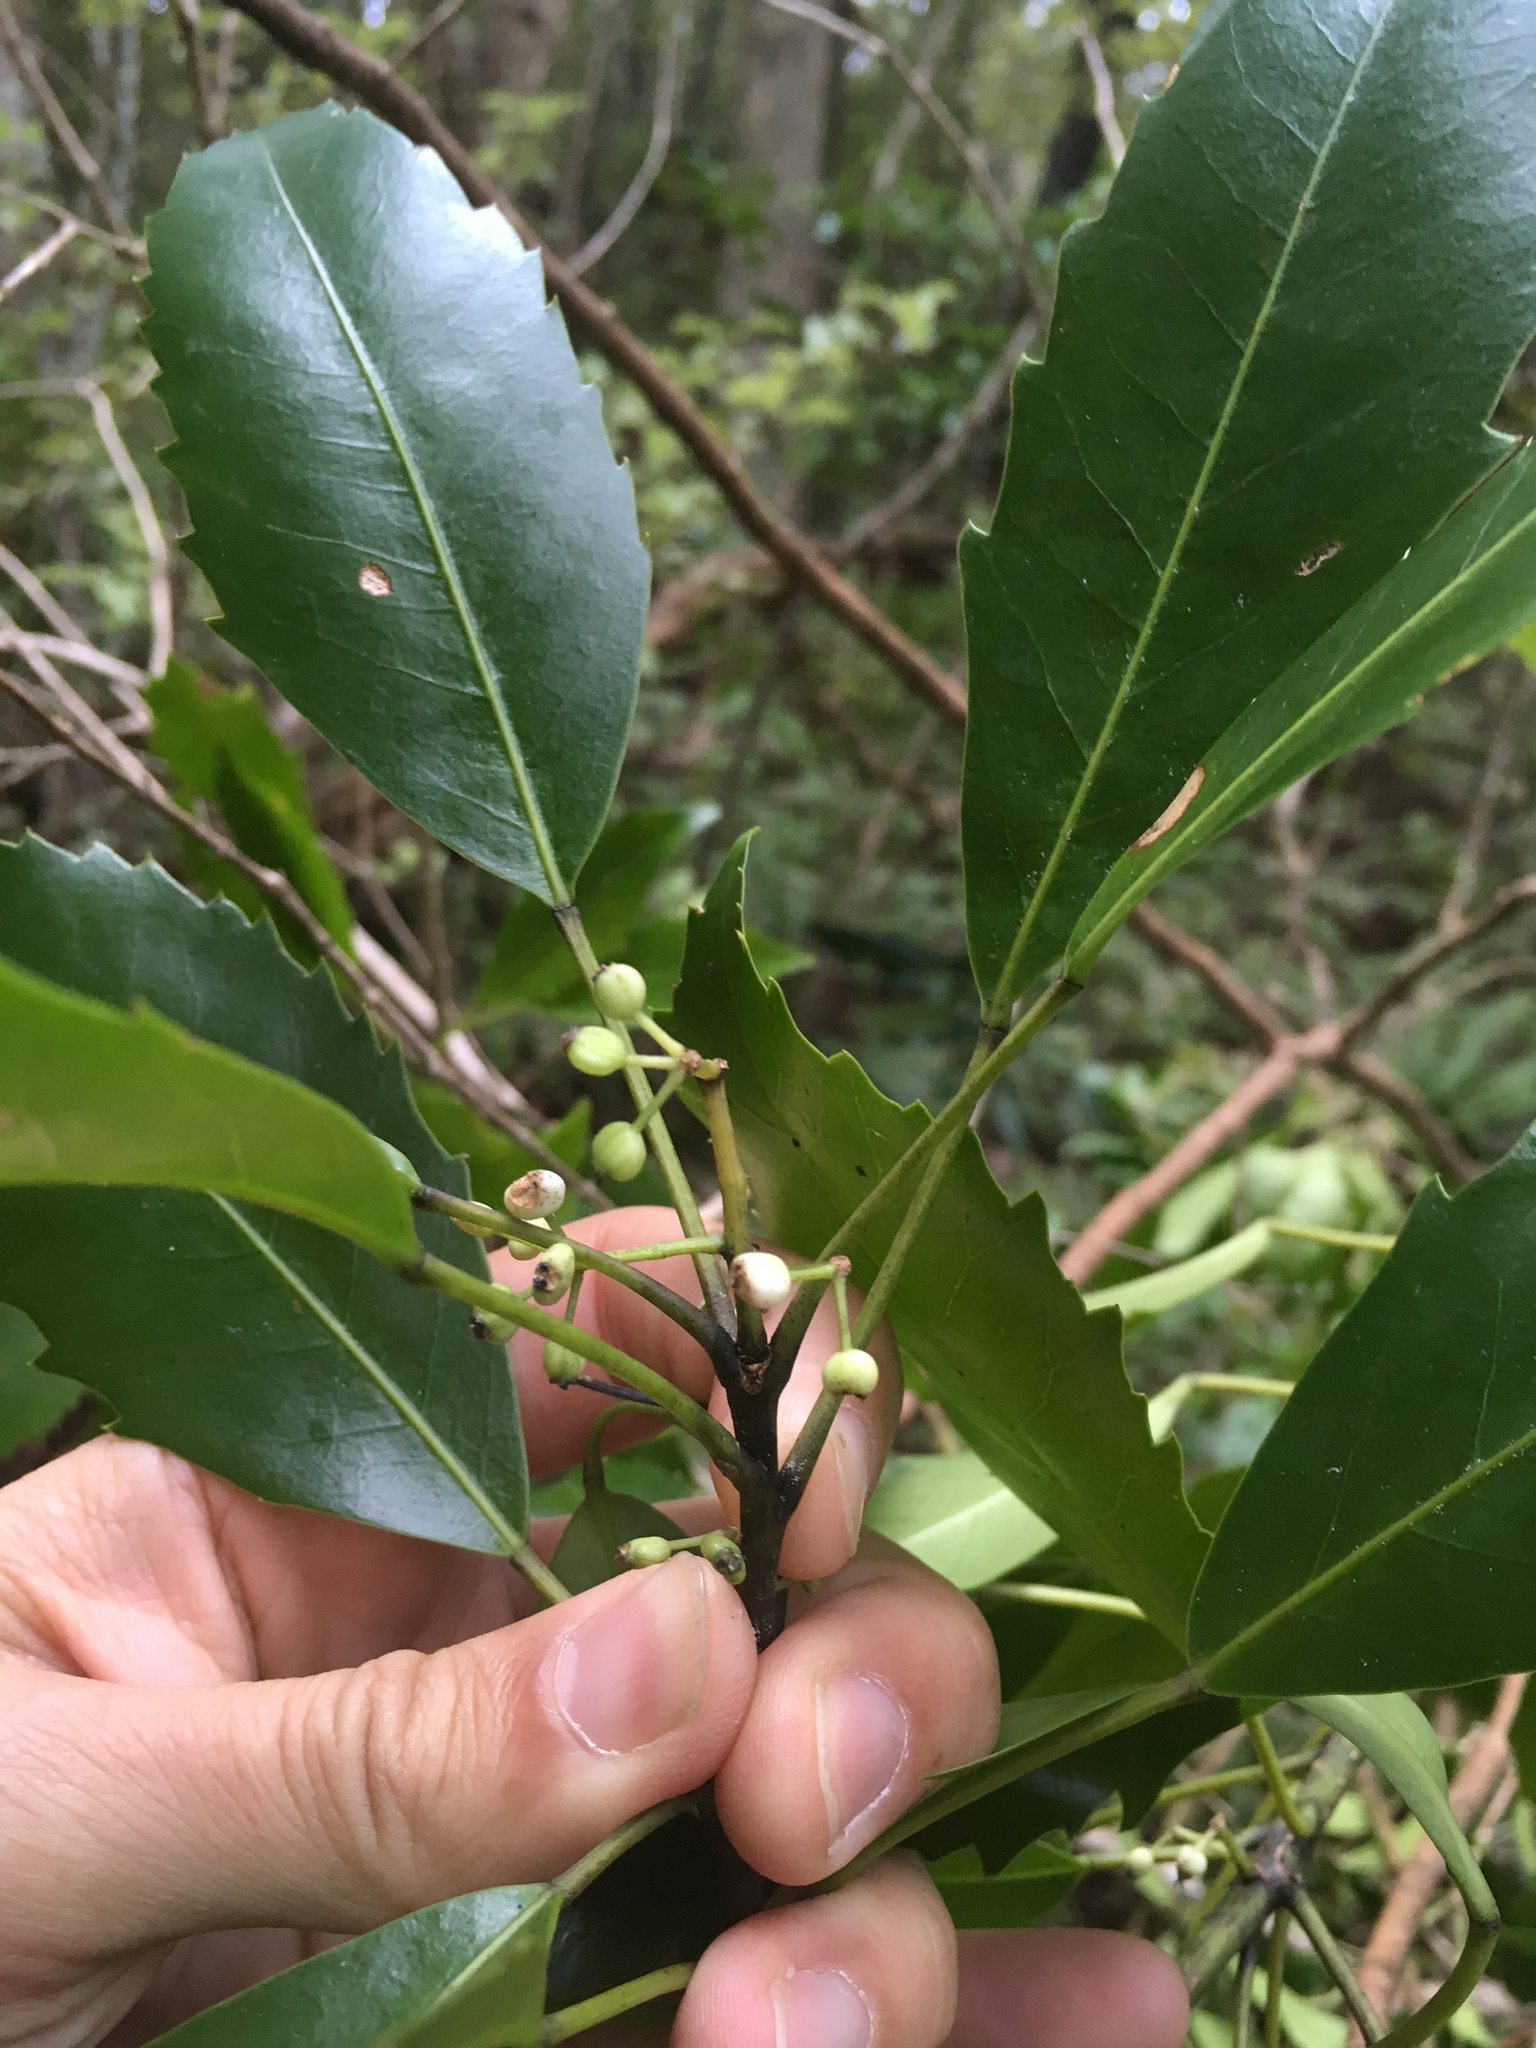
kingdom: Plantae
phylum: Tracheophyta
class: Magnoliopsida
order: Apiales
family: Araliaceae
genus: Raukaua
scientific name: Raukaua simplex
